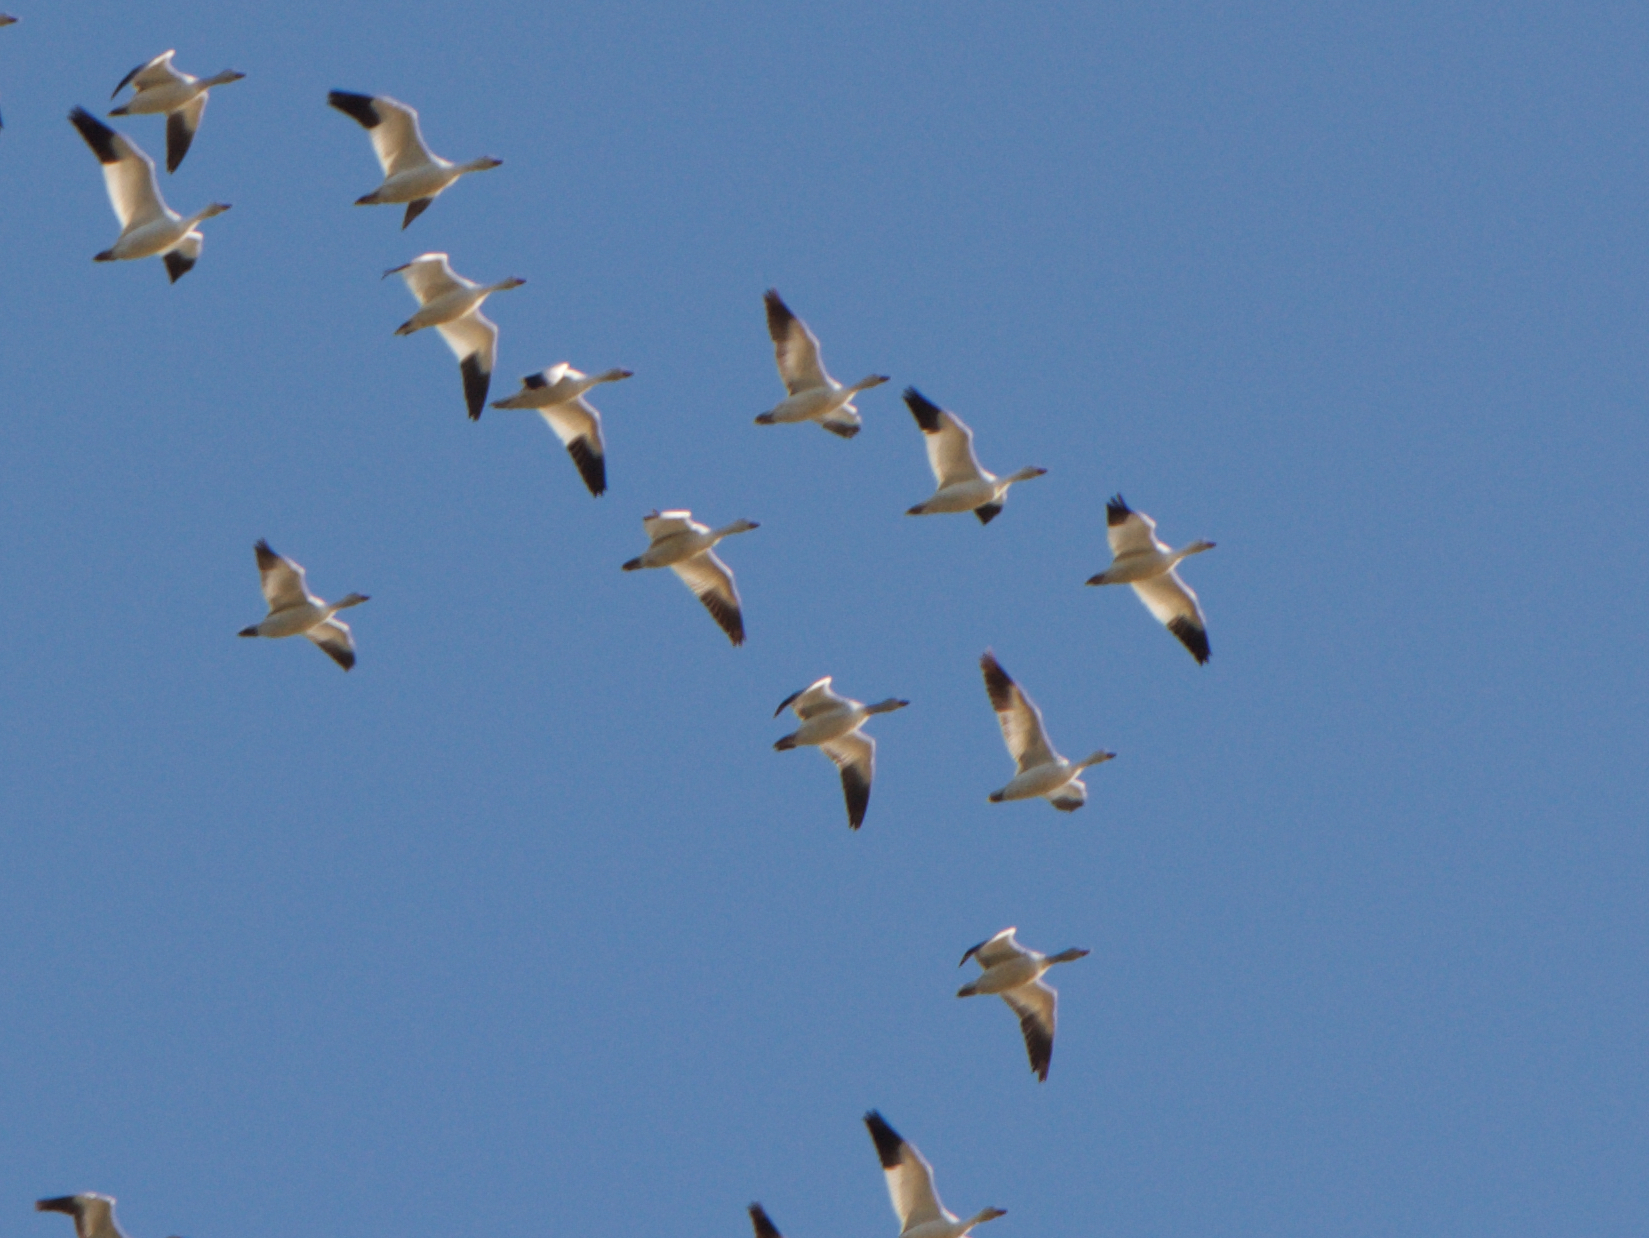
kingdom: Animalia
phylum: Chordata
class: Aves
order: Anseriformes
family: Anatidae
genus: Anser
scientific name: Anser caerulescens
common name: Snow goose
